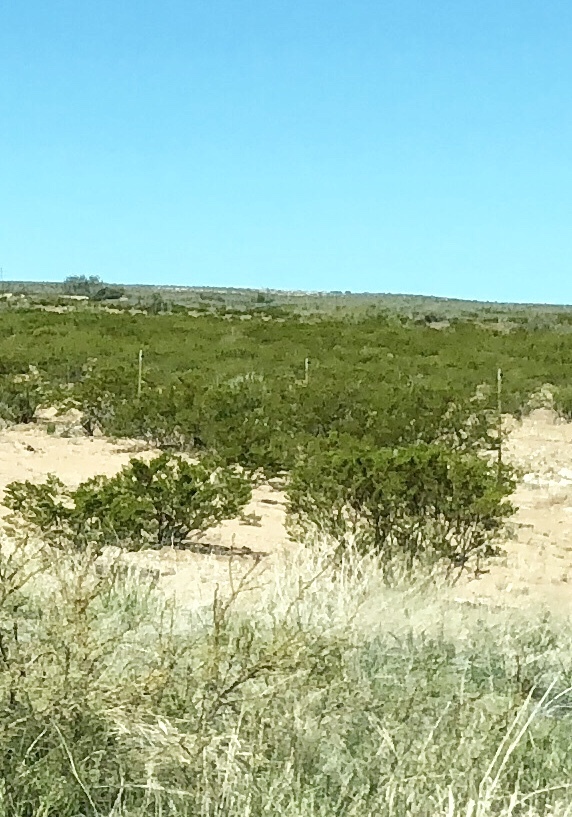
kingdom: Plantae
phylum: Tracheophyta
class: Magnoliopsida
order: Zygophyllales
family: Zygophyllaceae
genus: Larrea
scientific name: Larrea tridentata
